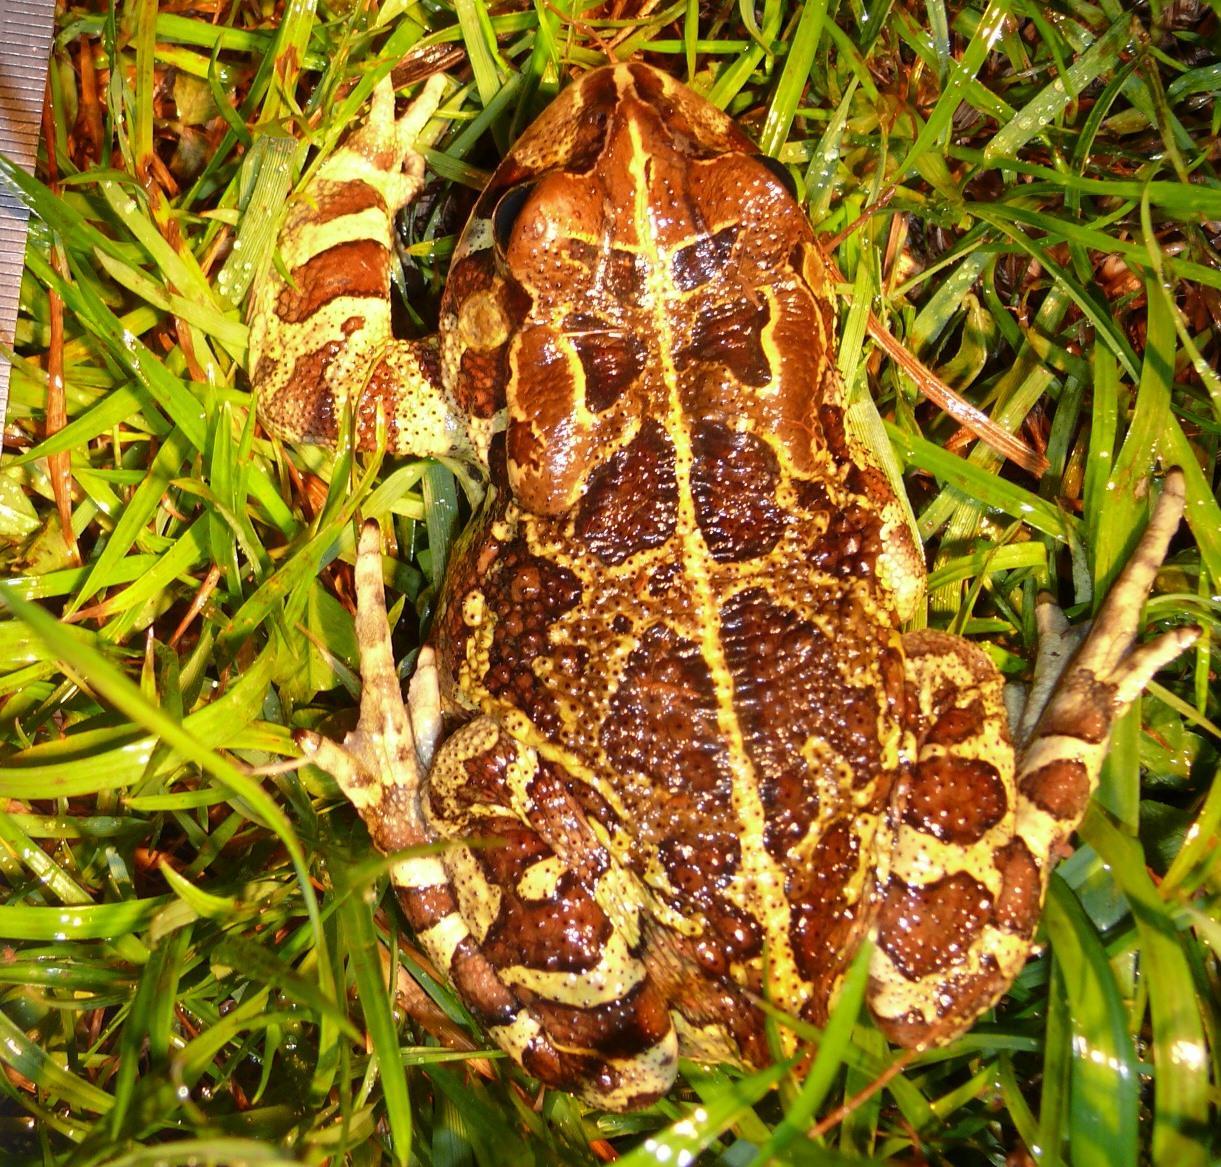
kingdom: Animalia
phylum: Chordata
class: Amphibia
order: Anura
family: Bufonidae
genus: Sclerophrys
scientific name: Sclerophrys pantherina
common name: Panther toad
